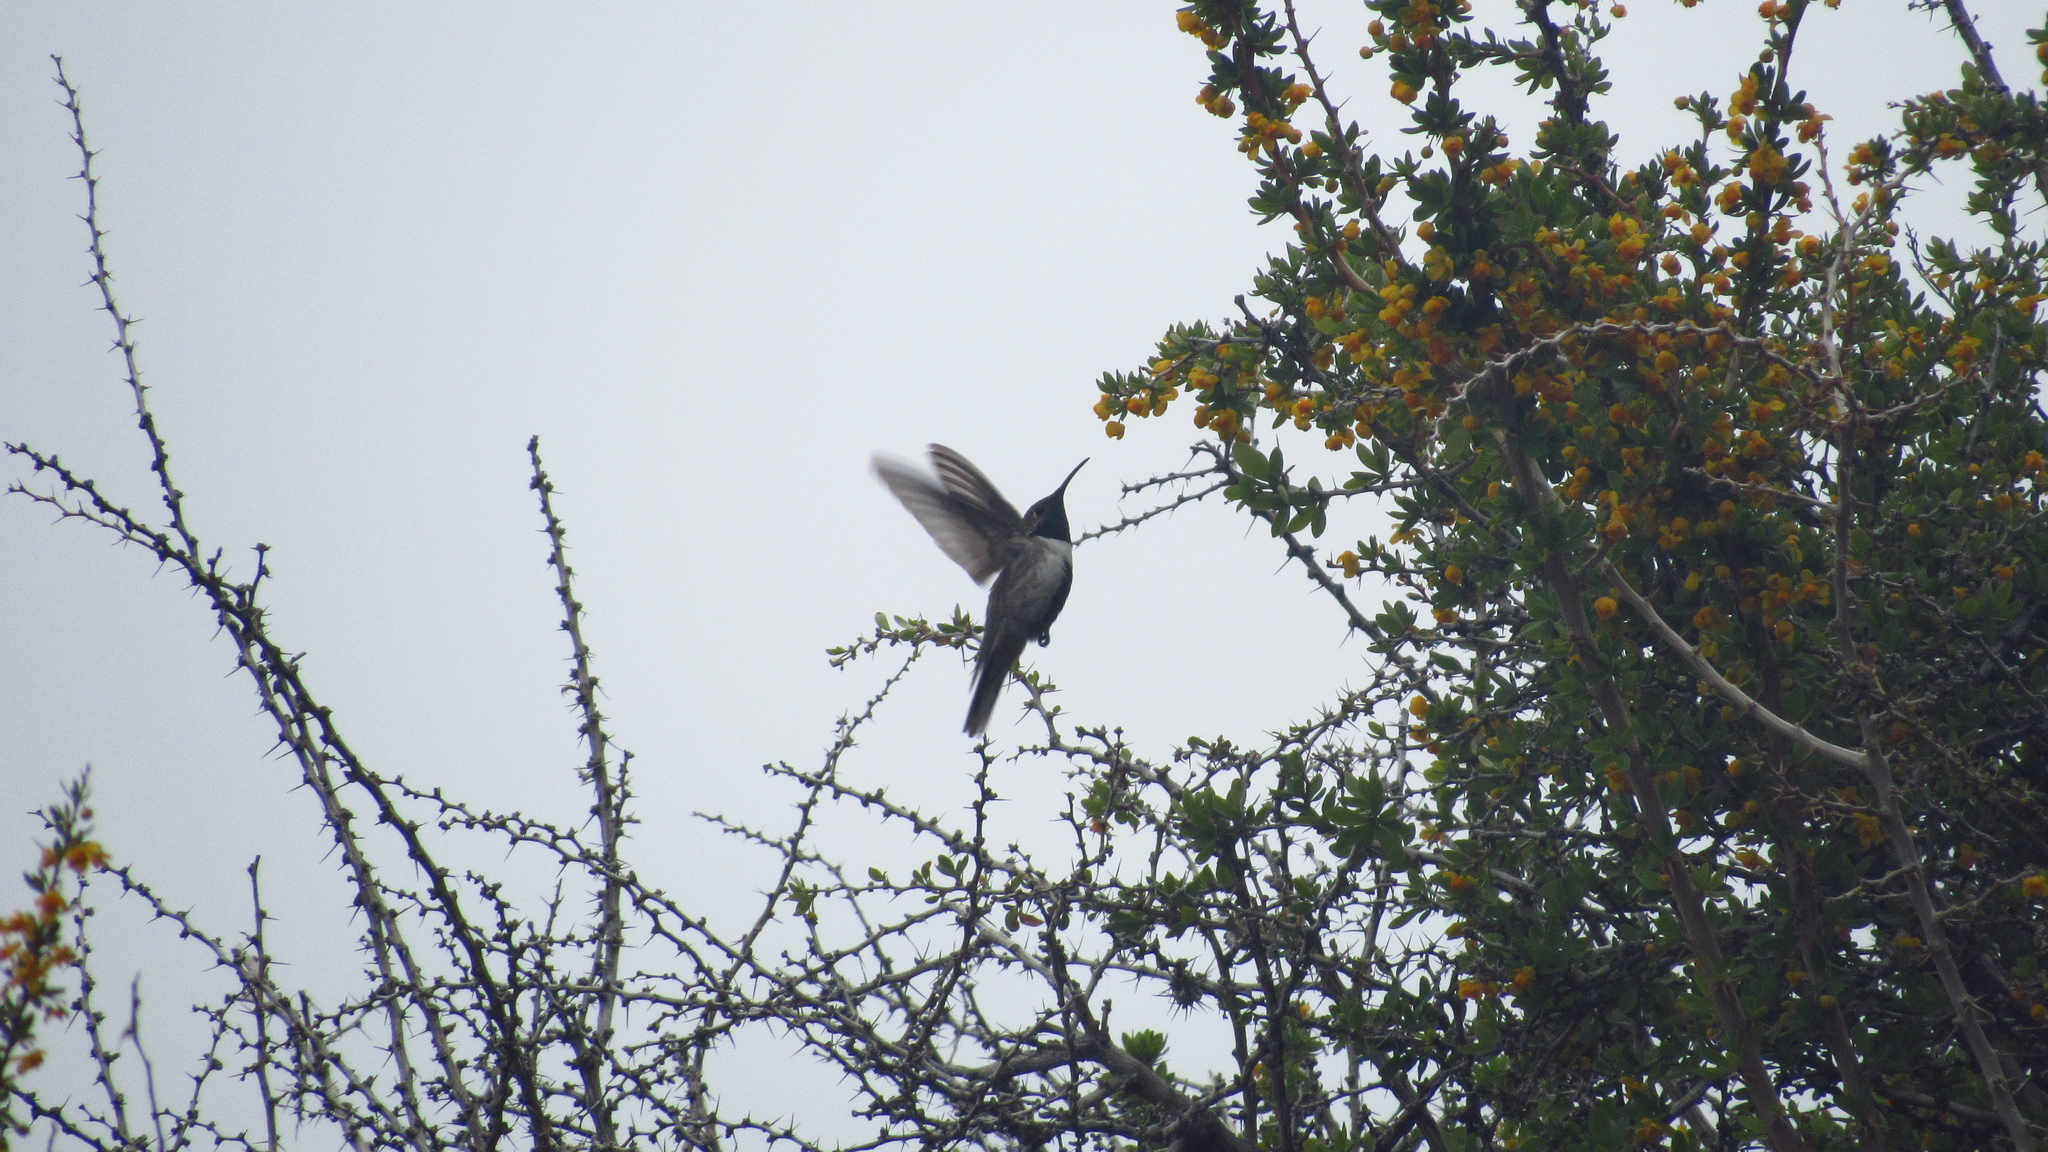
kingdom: Animalia
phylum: Chordata
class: Aves
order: Apodiformes
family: Trochilidae
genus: Oreotrochilus
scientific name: Oreotrochilus leucopleurus
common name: White-sided hillstar
